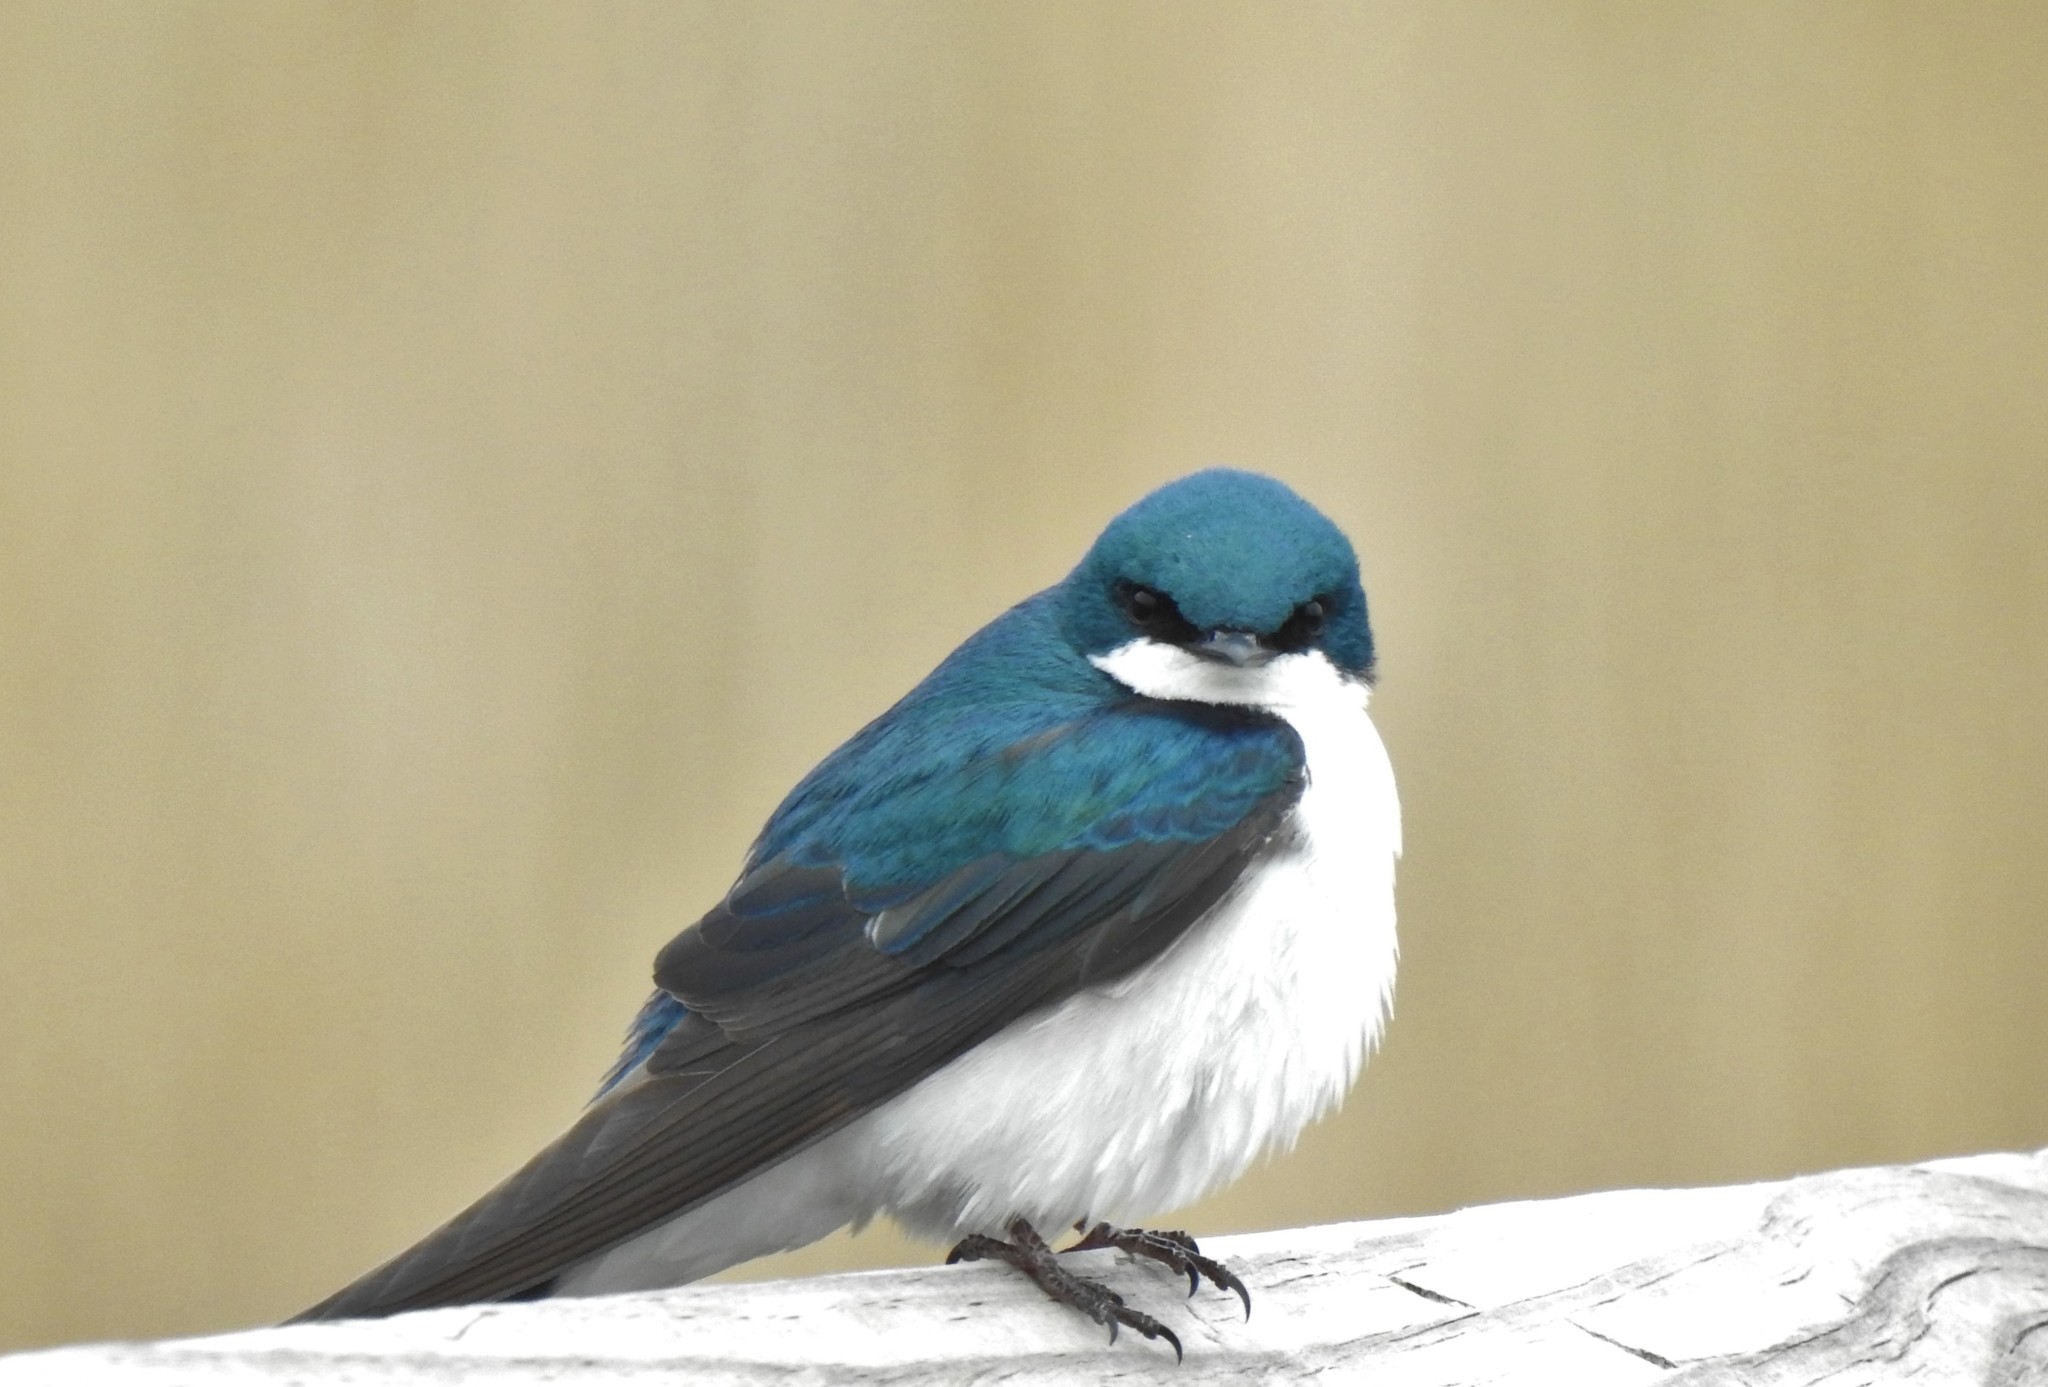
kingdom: Animalia
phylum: Chordata
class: Aves
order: Passeriformes
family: Hirundinidae
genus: Tachycineta
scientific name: Tachycineta bicolor
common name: Tree swallow
